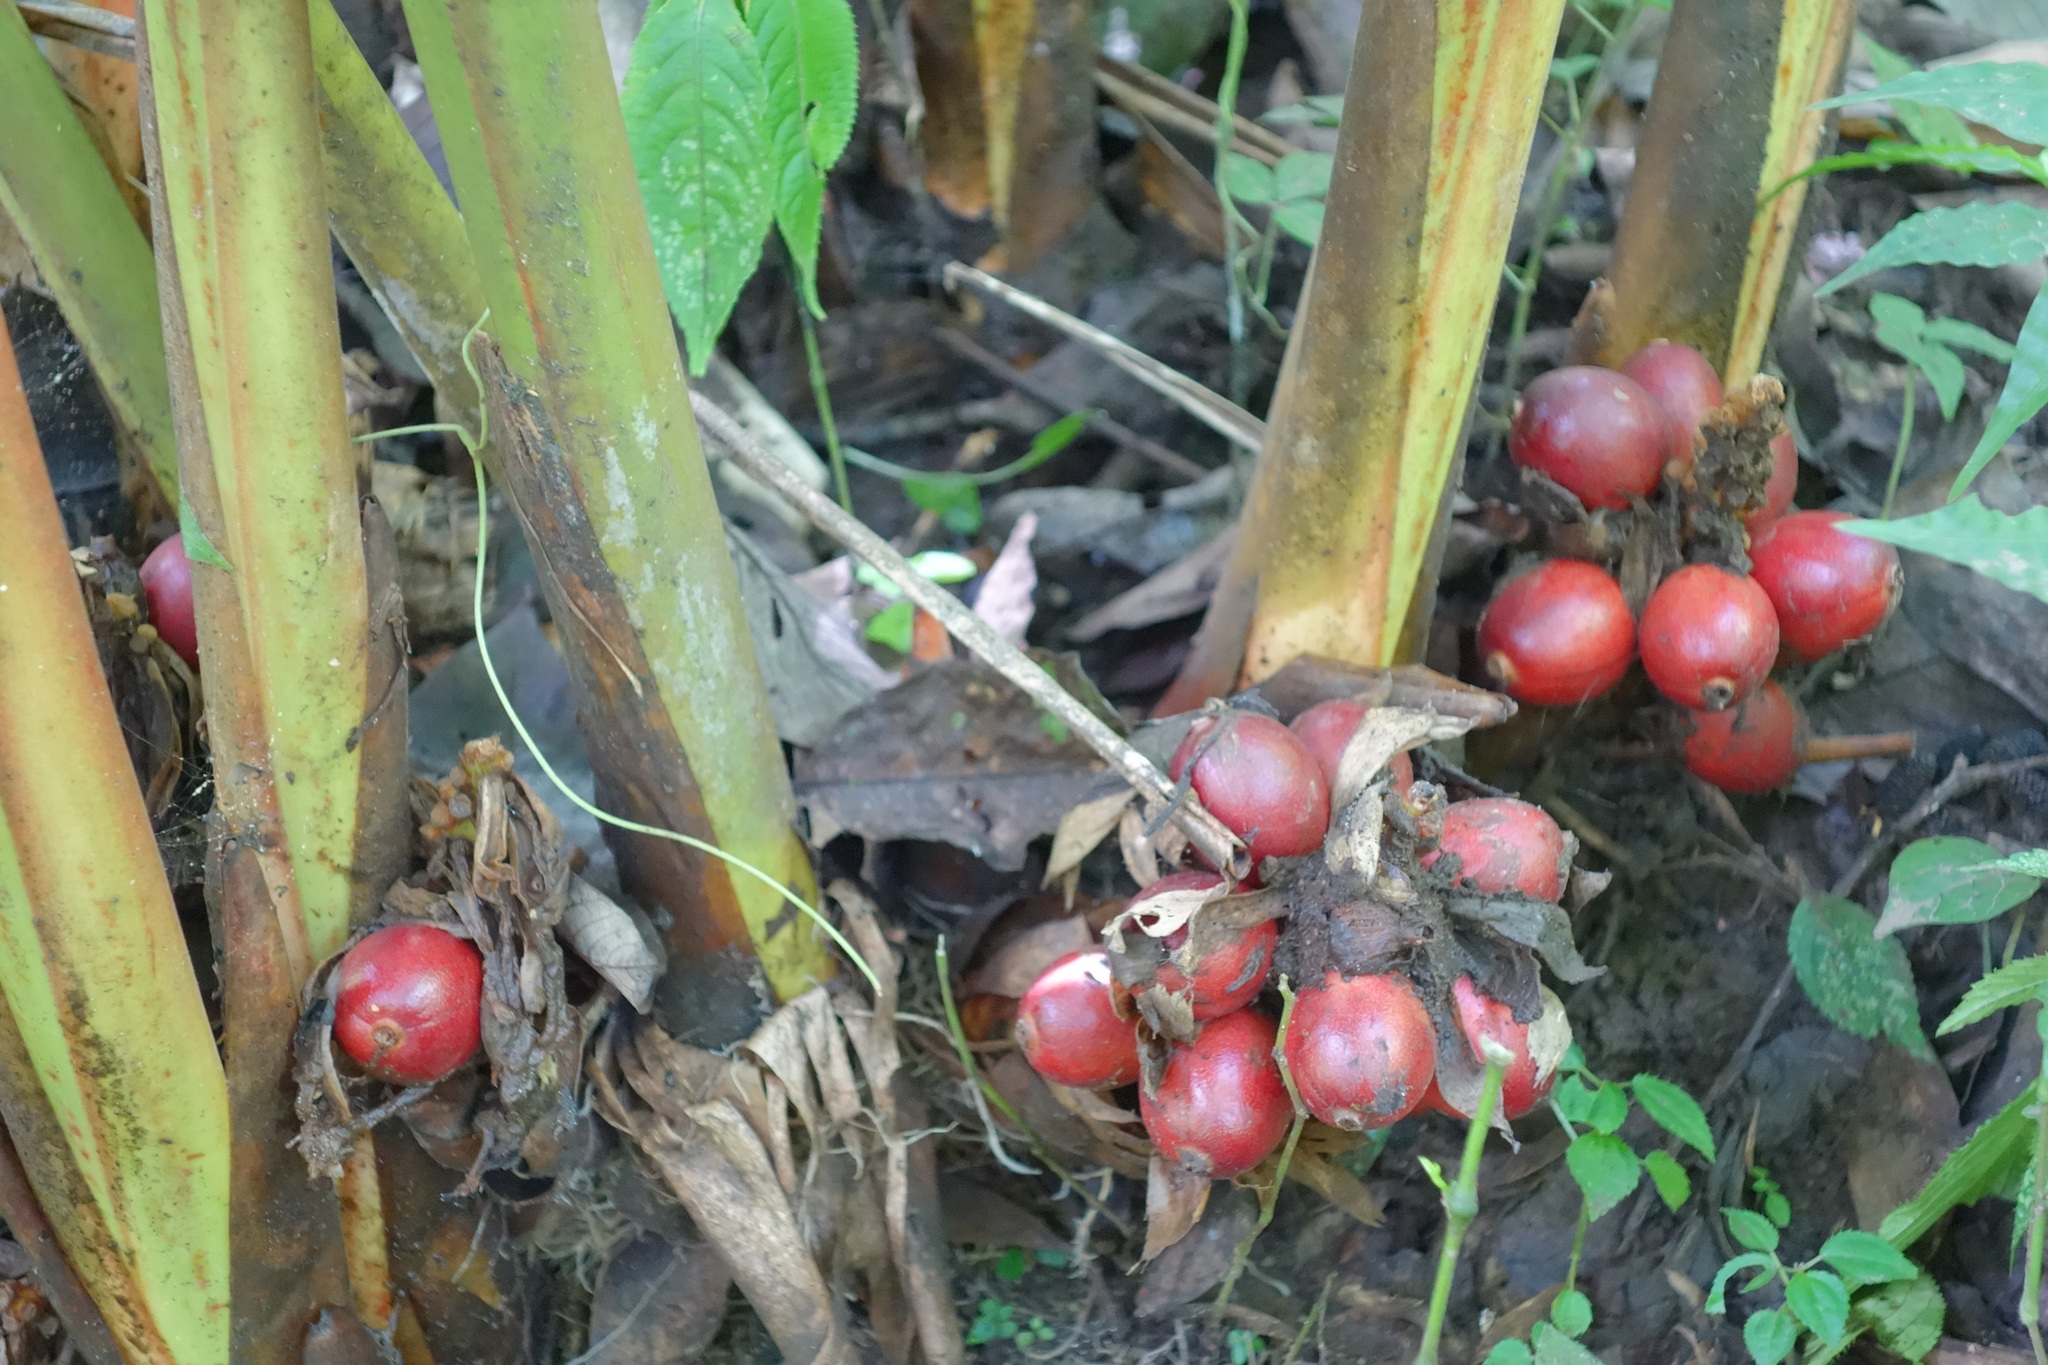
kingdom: Plantae
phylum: Tracheophyta
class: Liliopsida
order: Zingiberales
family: Zingiberaceae
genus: Lanxangia
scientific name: Lanxangia tsao-ko
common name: Tsao-ko cardamom
